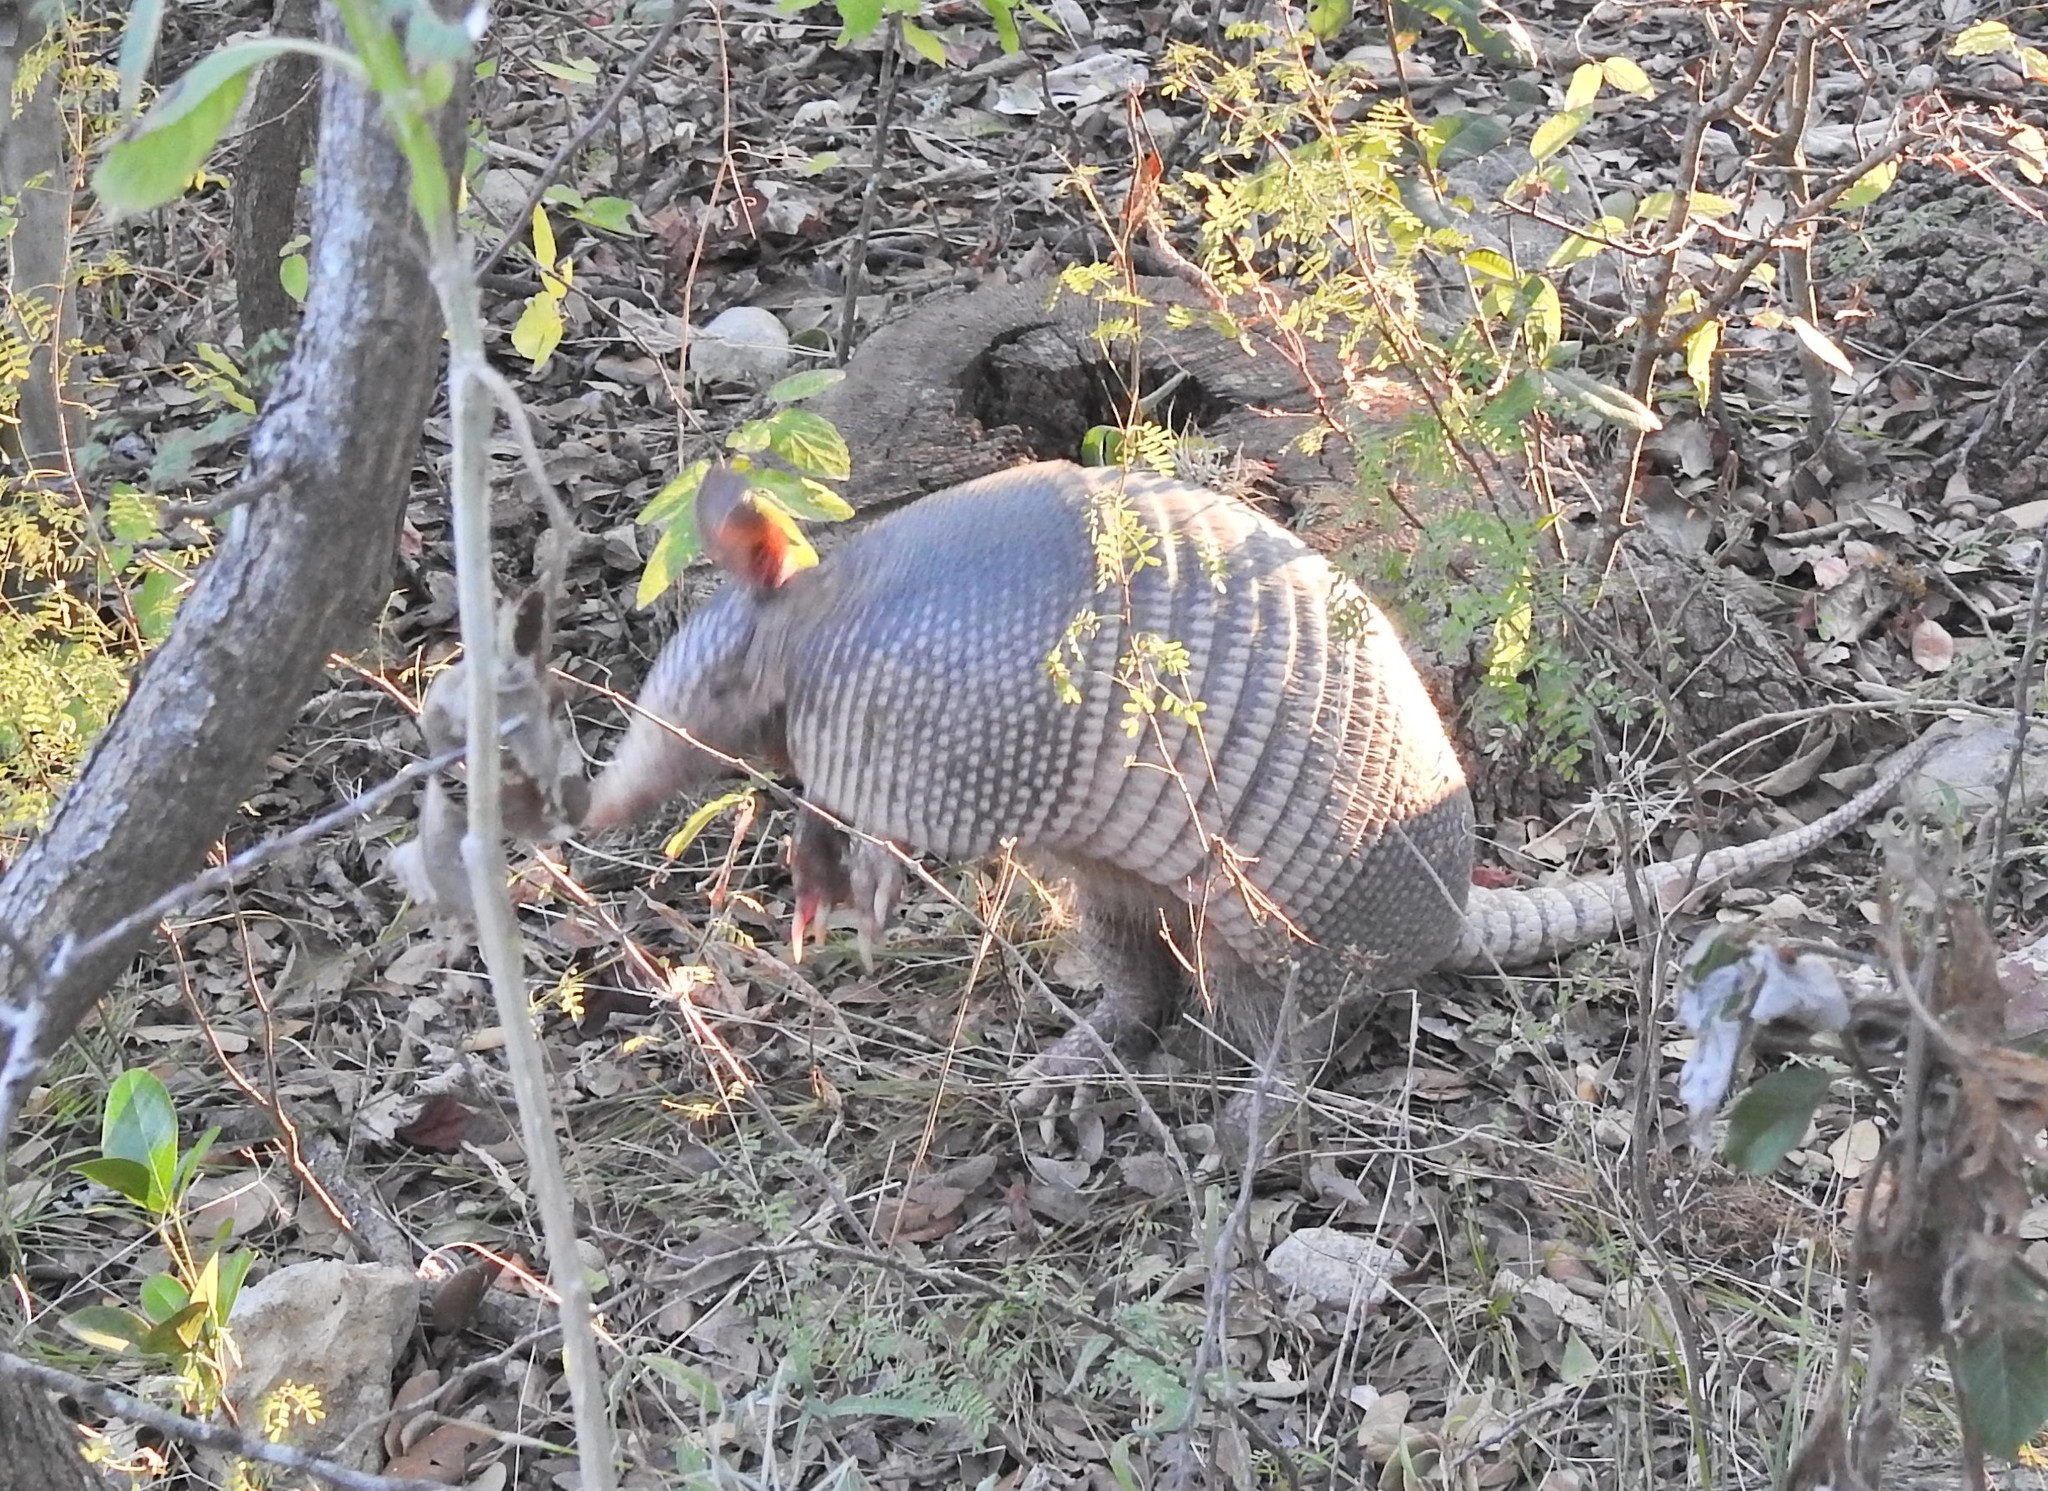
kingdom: Animalia
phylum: Chordata
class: Mammalia
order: Cingulata
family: Dasypodidae
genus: Dasypus
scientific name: Dasypus novemcinctus
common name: Nine-banded armadillo
